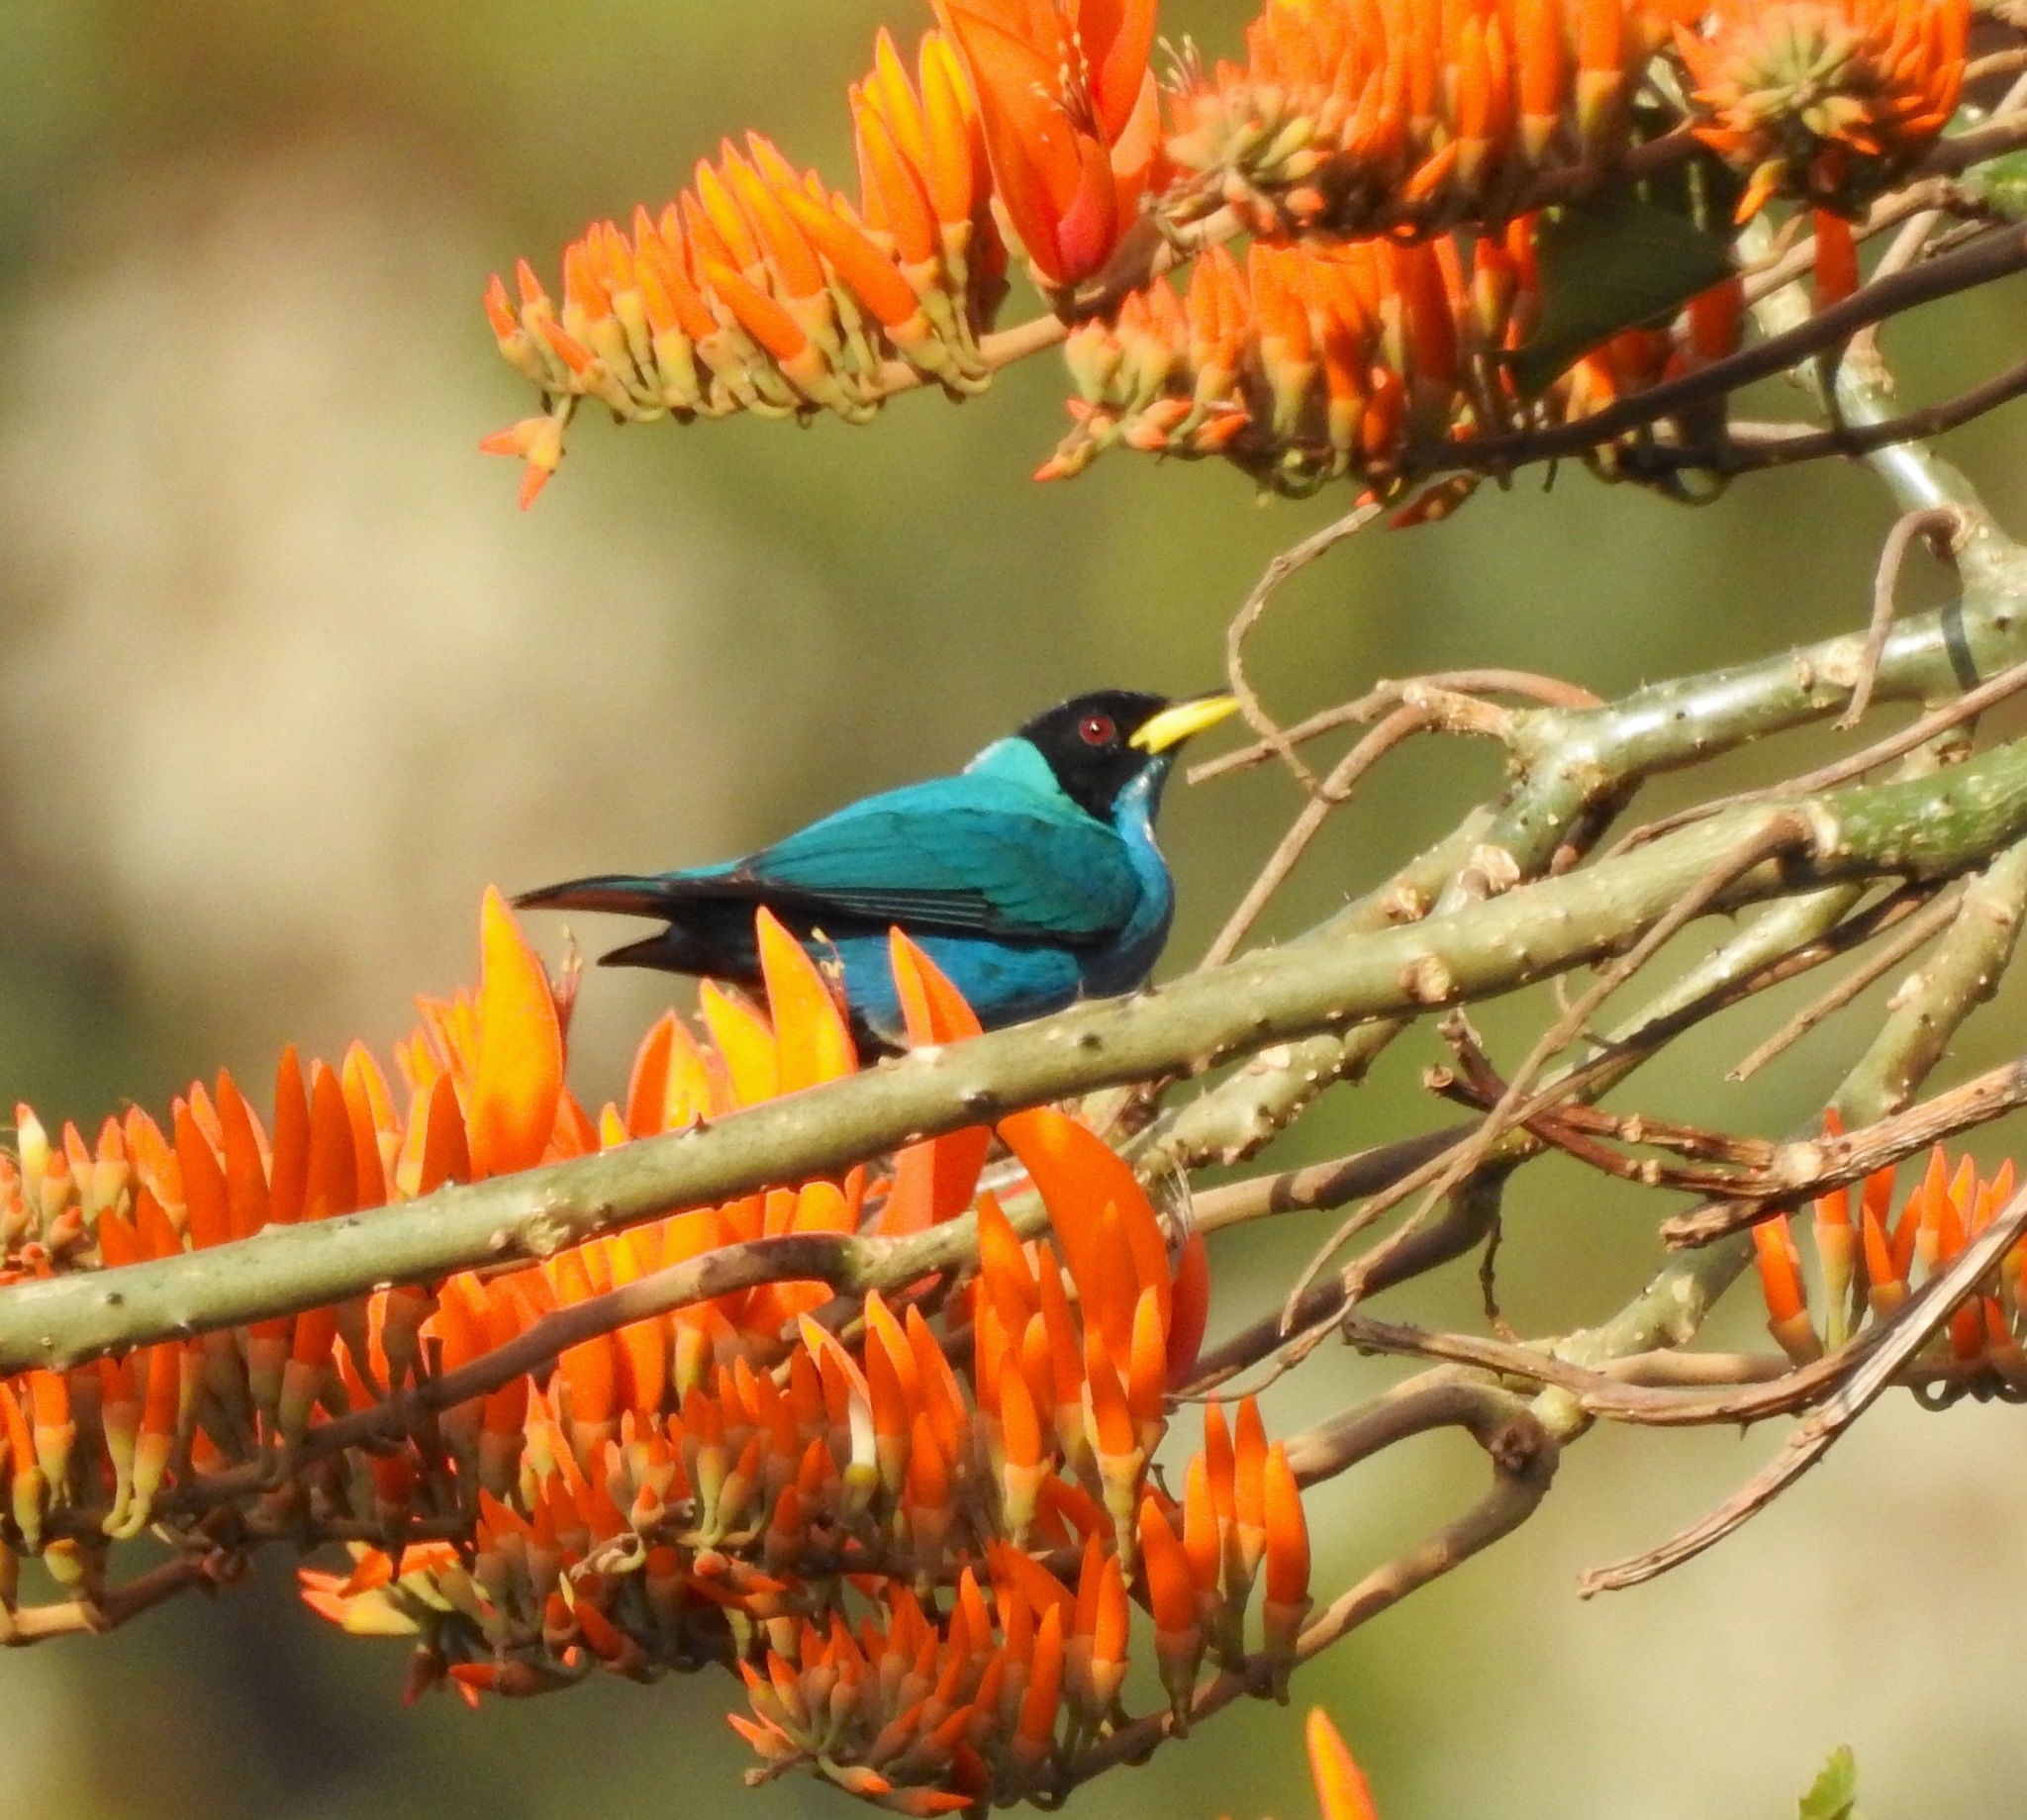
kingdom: Animalia
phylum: Chordata
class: Aves
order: Passeriformes
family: Thraupidae
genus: Chlorophanes
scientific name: Chlorophanes spiza
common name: Green honeycreeper
